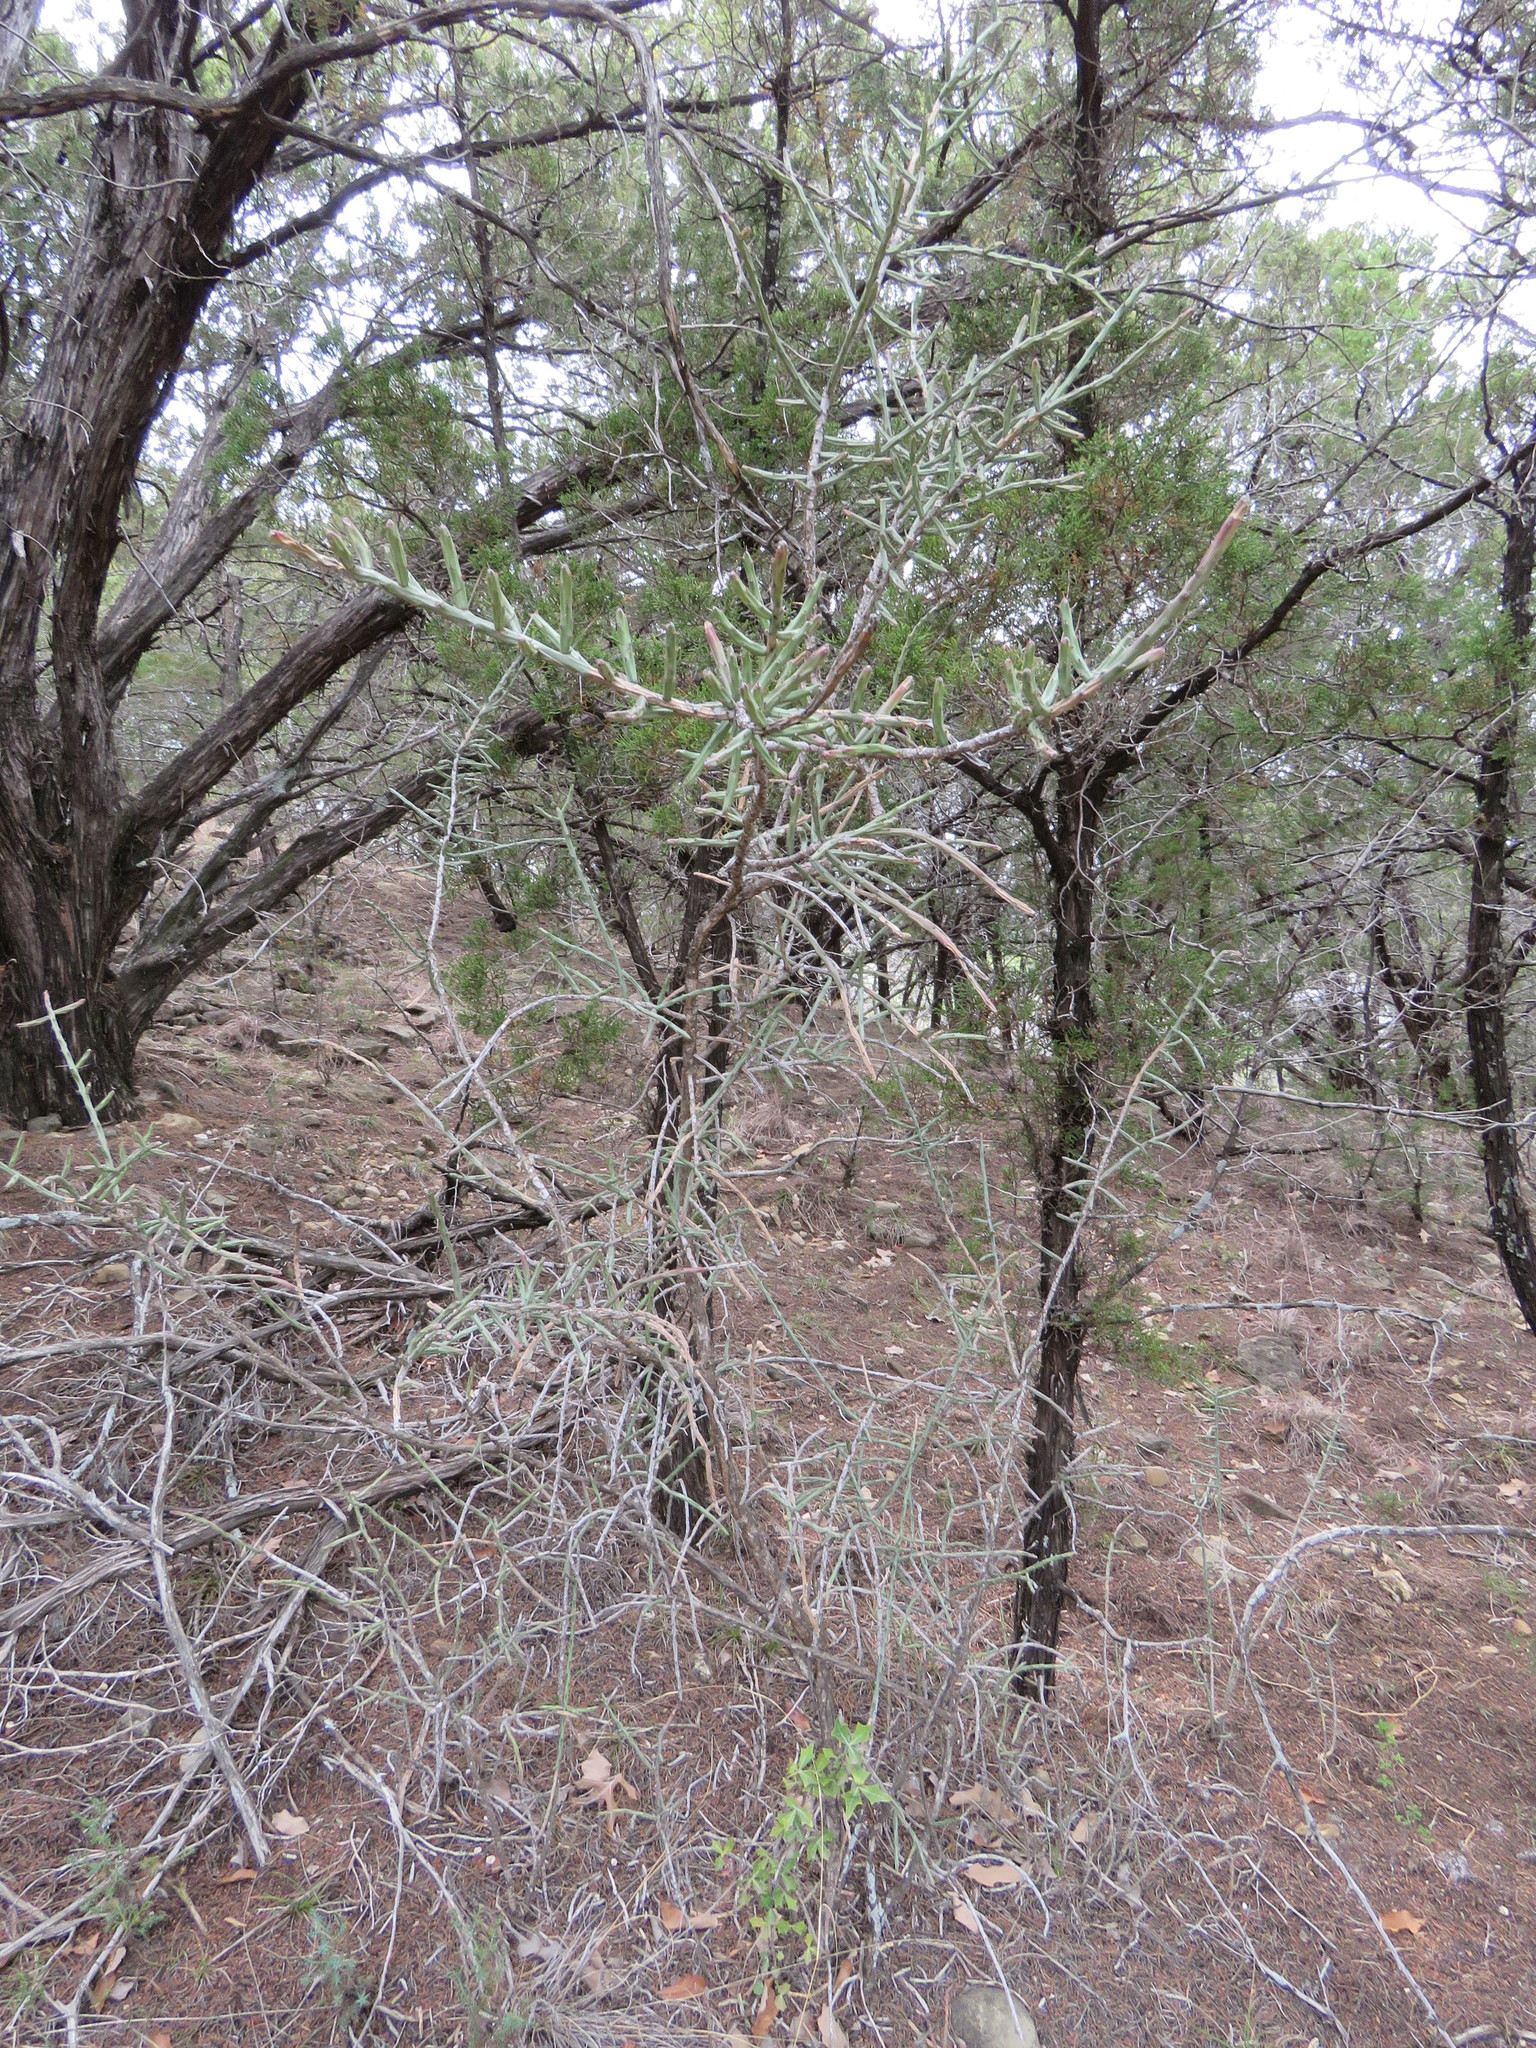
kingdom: Plantae
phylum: Tracheophyta
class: Magnoliopsida
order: Caryophyllales
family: Cactaceae
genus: Cylindropuntia
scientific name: Cylindropuntia leptocaulis
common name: Christmas cactus
